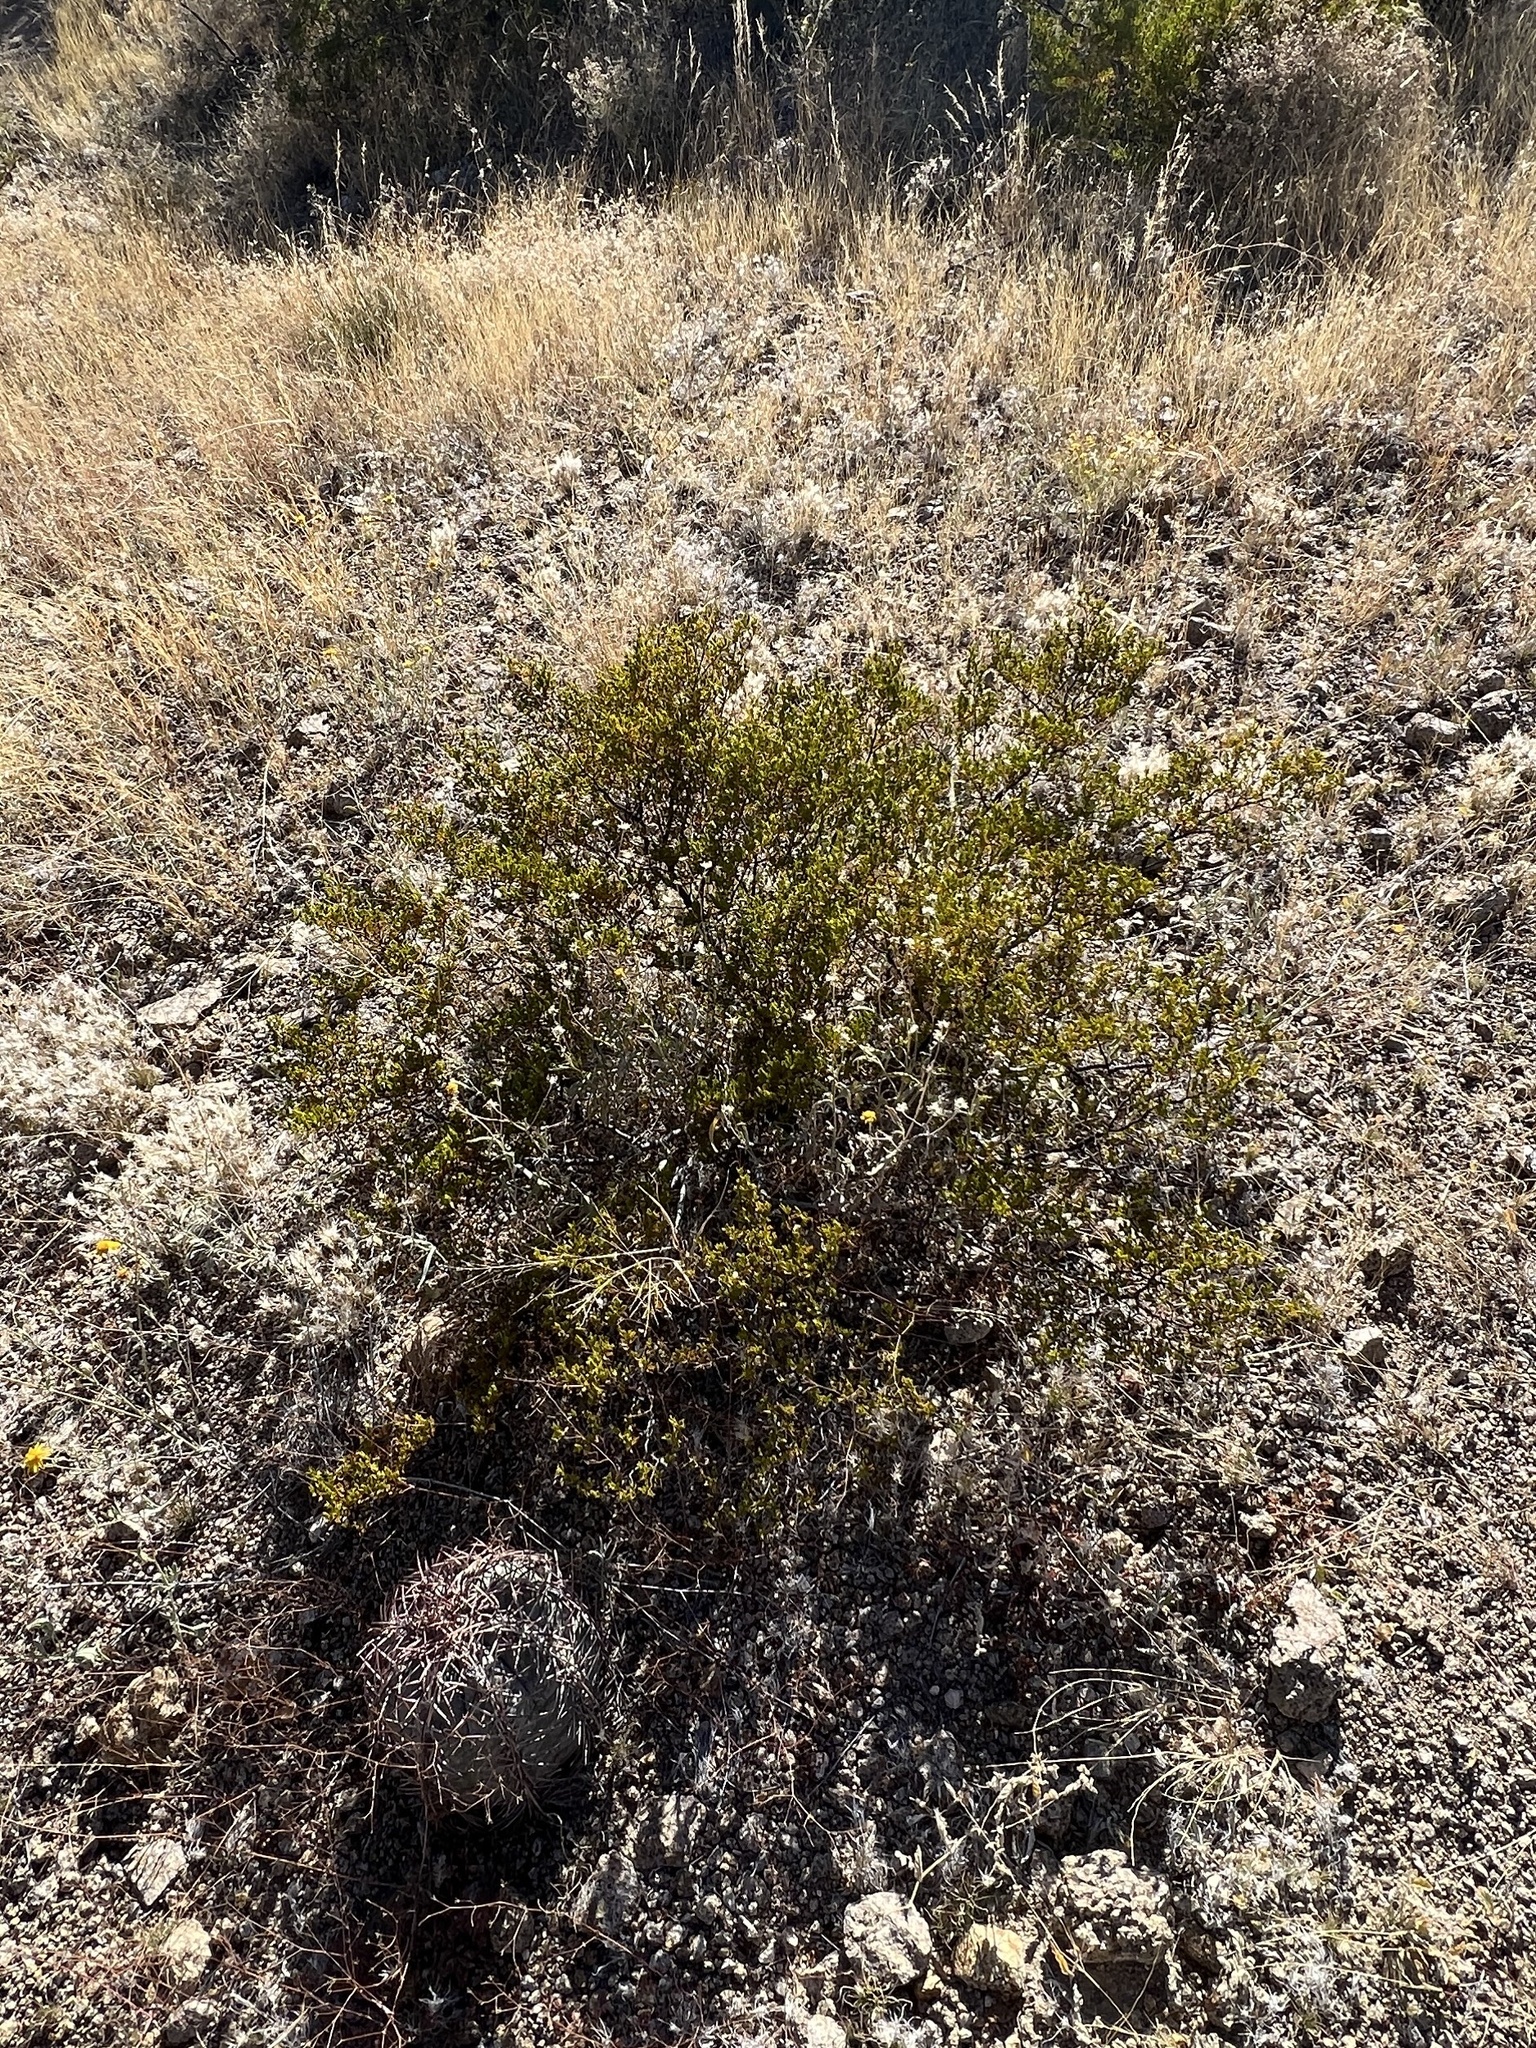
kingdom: Plantae
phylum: Tracheophyta
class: Magnoliopsida
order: Zygophyllales
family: Zygophyllaceae
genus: Larrea
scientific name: Larrea tridentata
